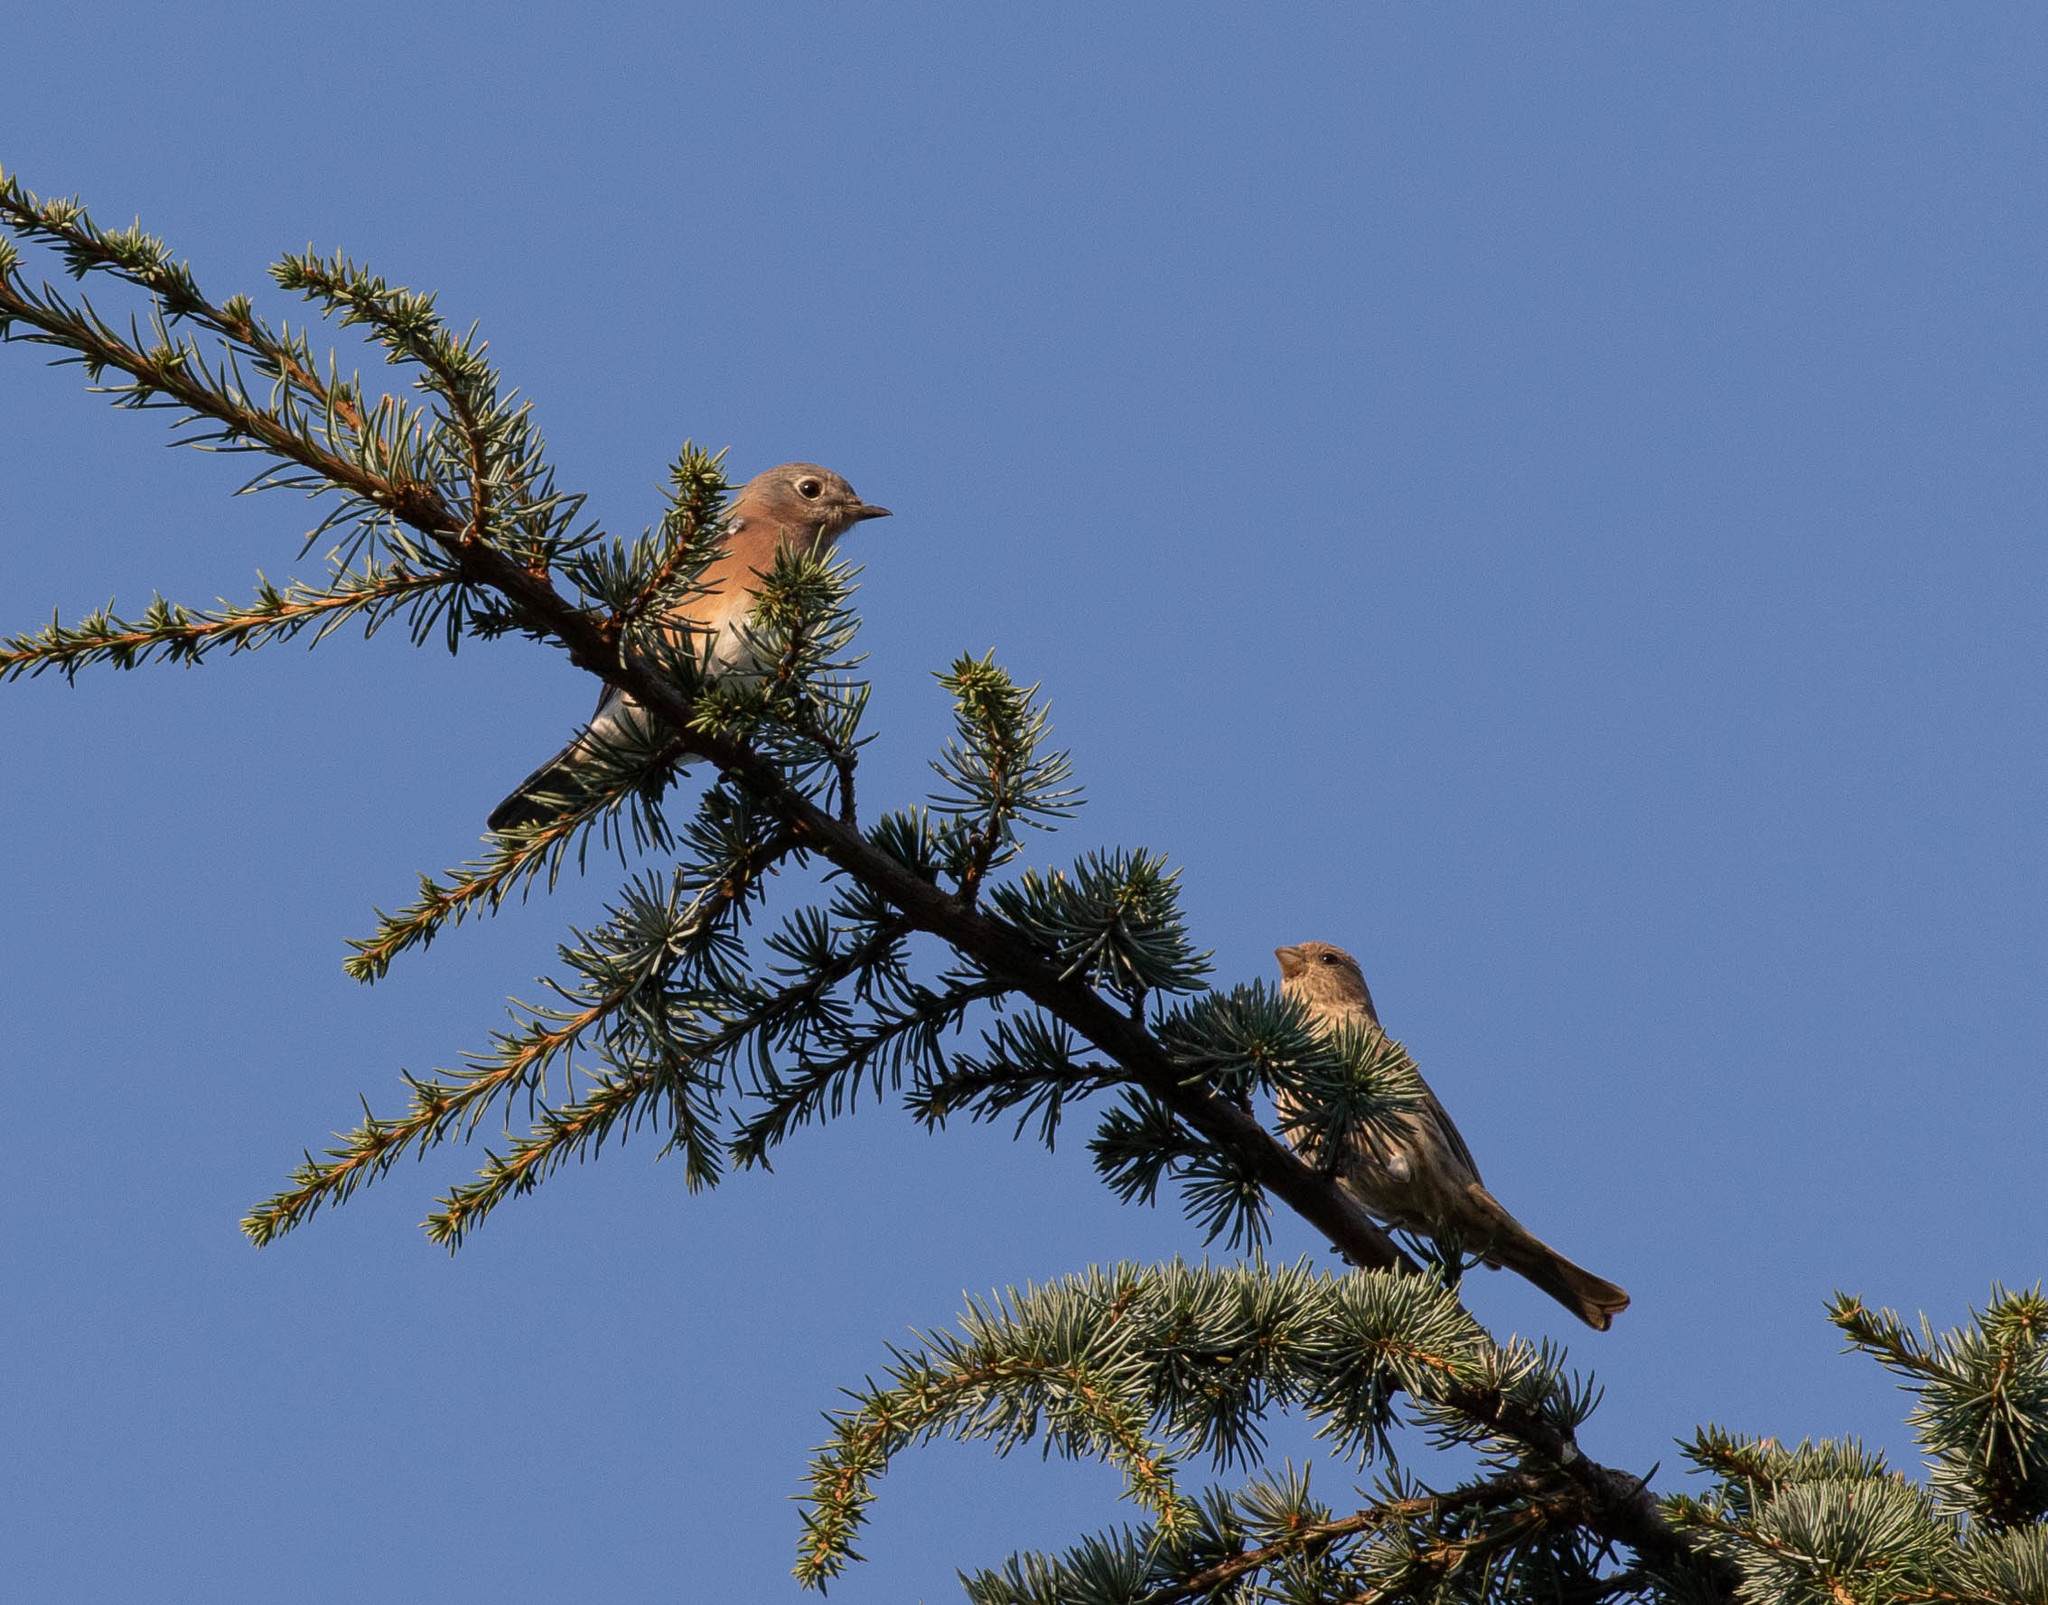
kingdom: Animalia
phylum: Chordata
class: Aves
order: Passeriformes
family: Turdidae
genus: Sialia
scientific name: Sialia sialis
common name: Eastern bluebird
